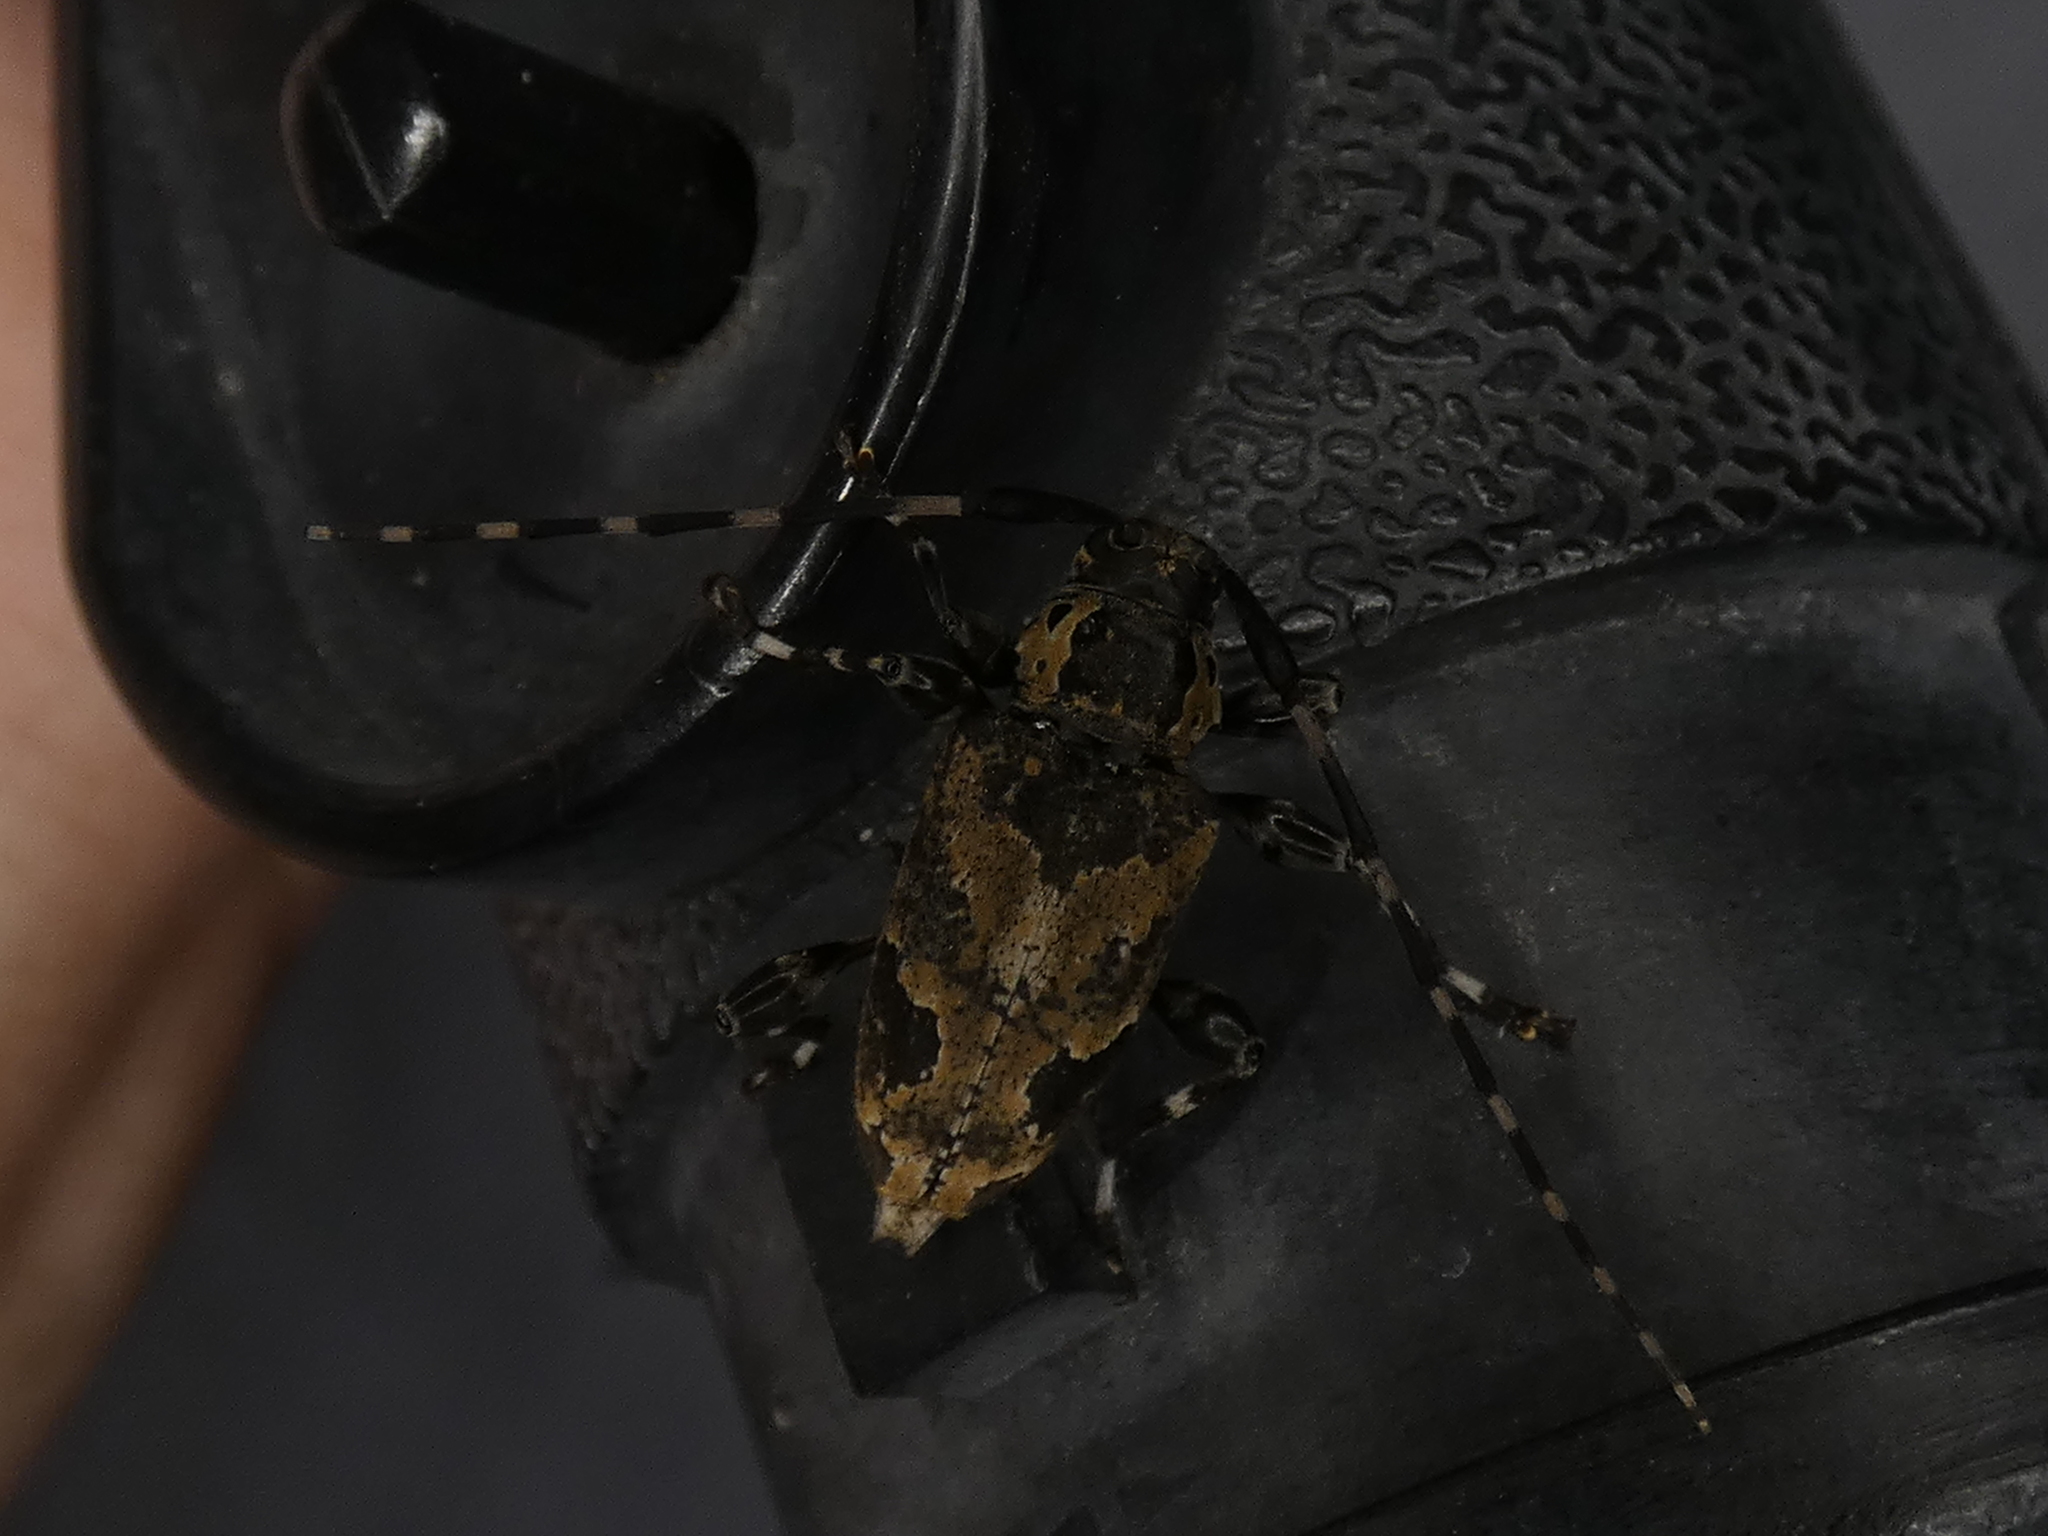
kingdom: Animalia
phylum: Arthropoda
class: Insecta
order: Coleoptera
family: Cerambycidae
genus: Graphisurus
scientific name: Graphisurus triangulifer
